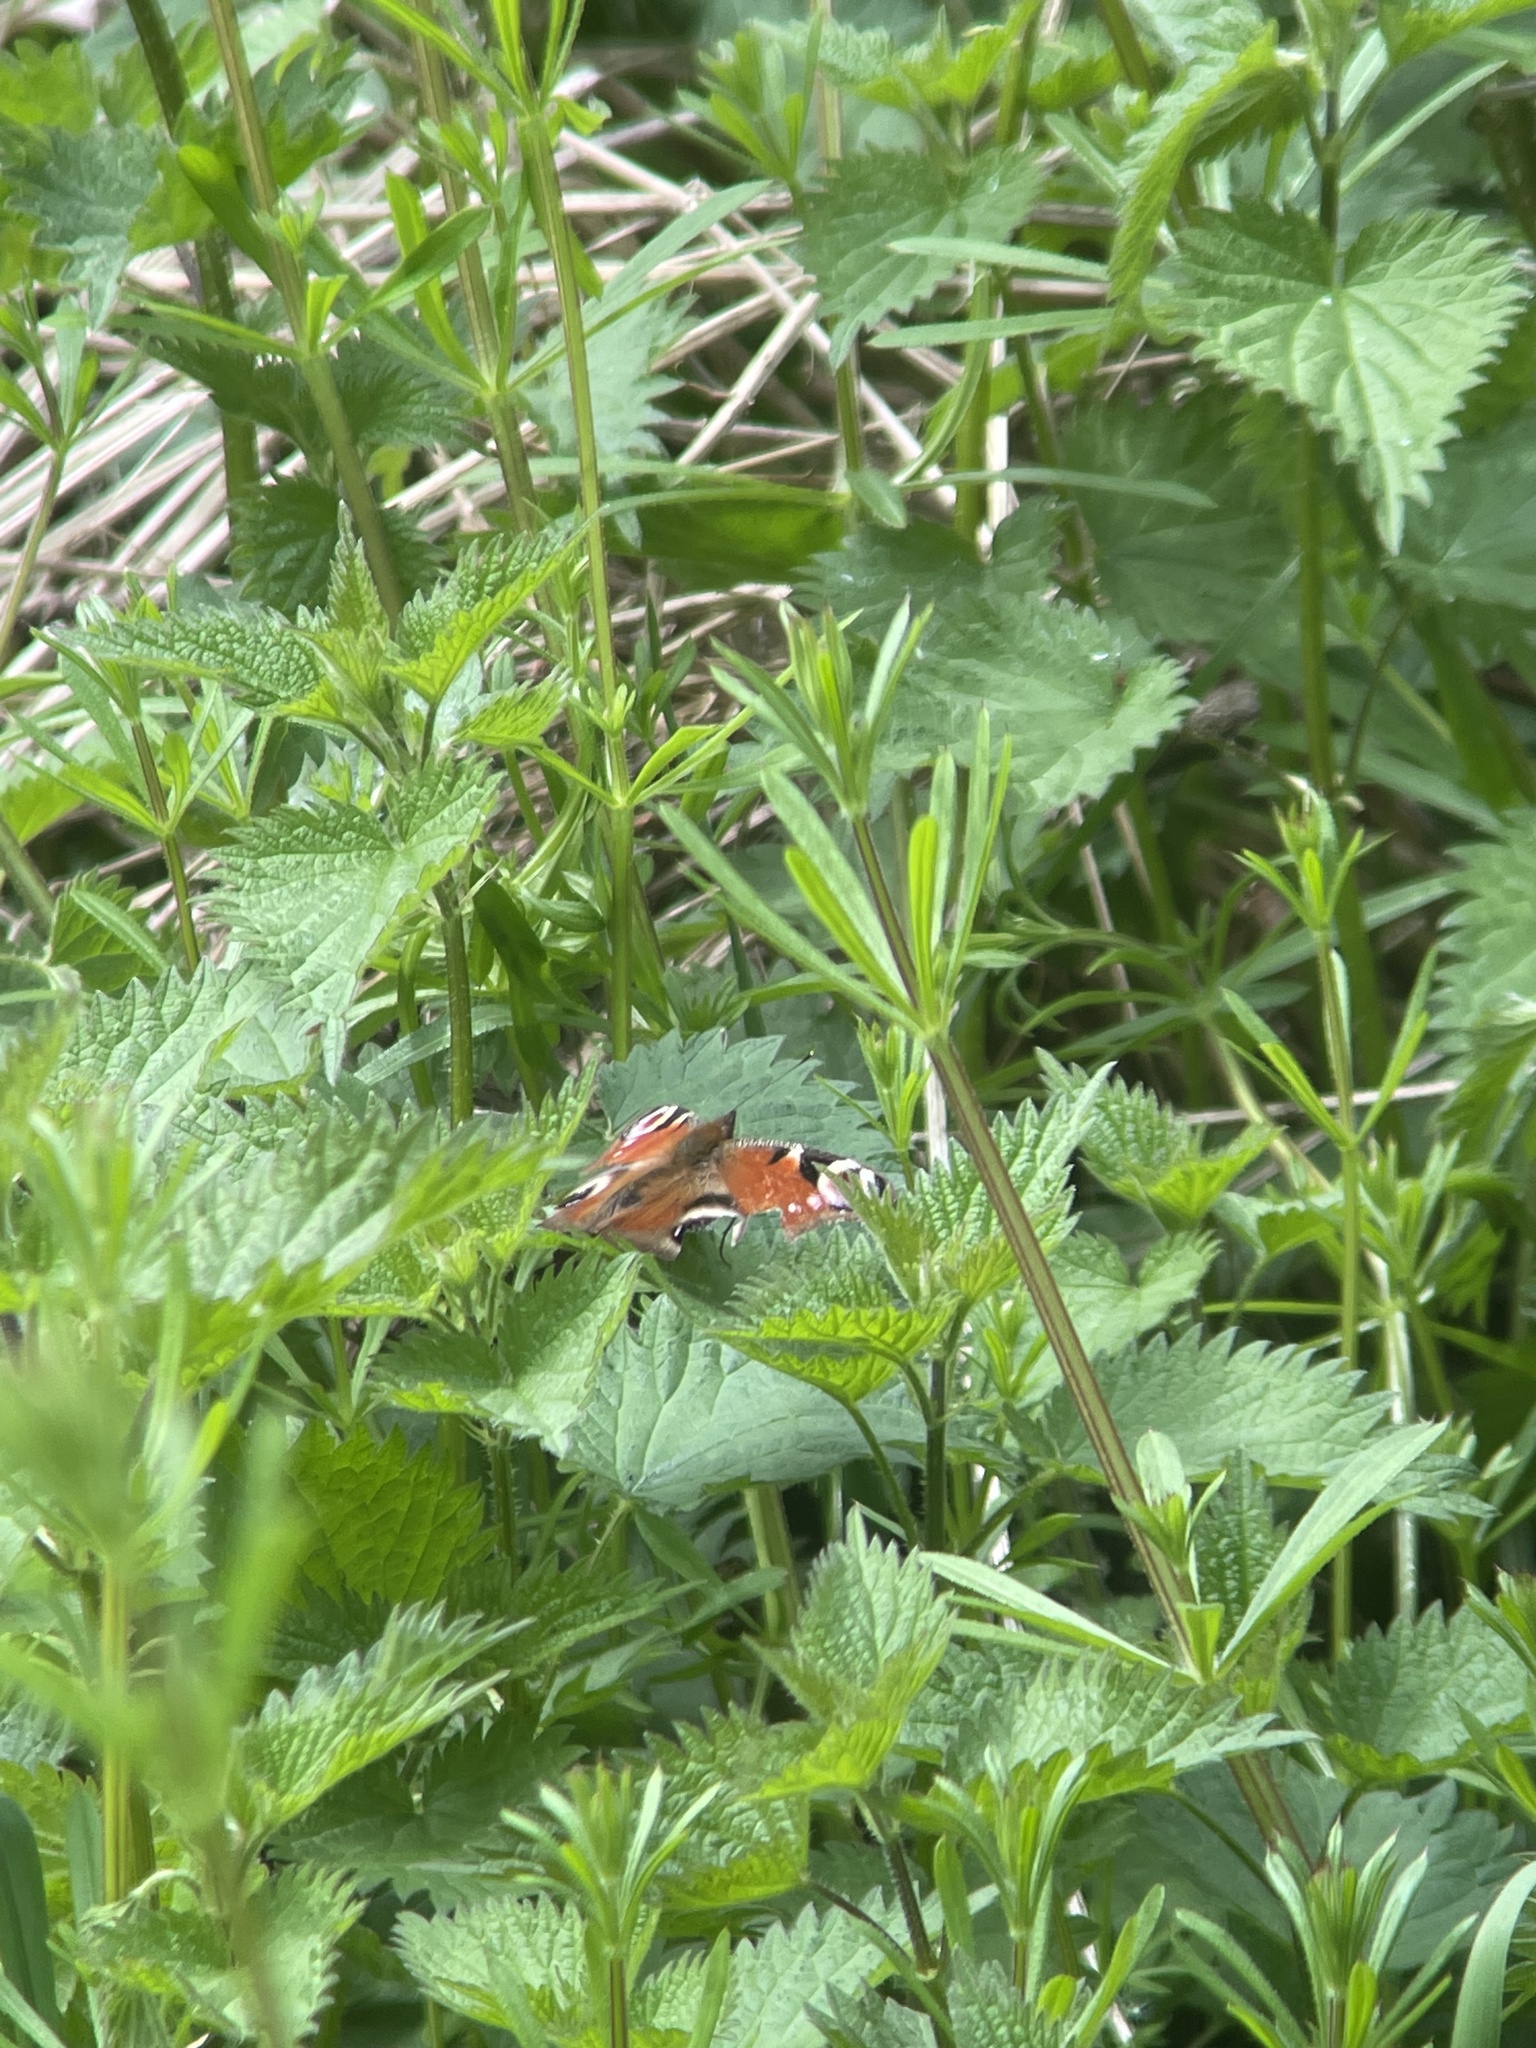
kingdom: Animalia
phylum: Arthropoda
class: Insecta
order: Lepidoptera
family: Nymphalidae
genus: Aglais
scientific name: Aglais io
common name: Peacock
